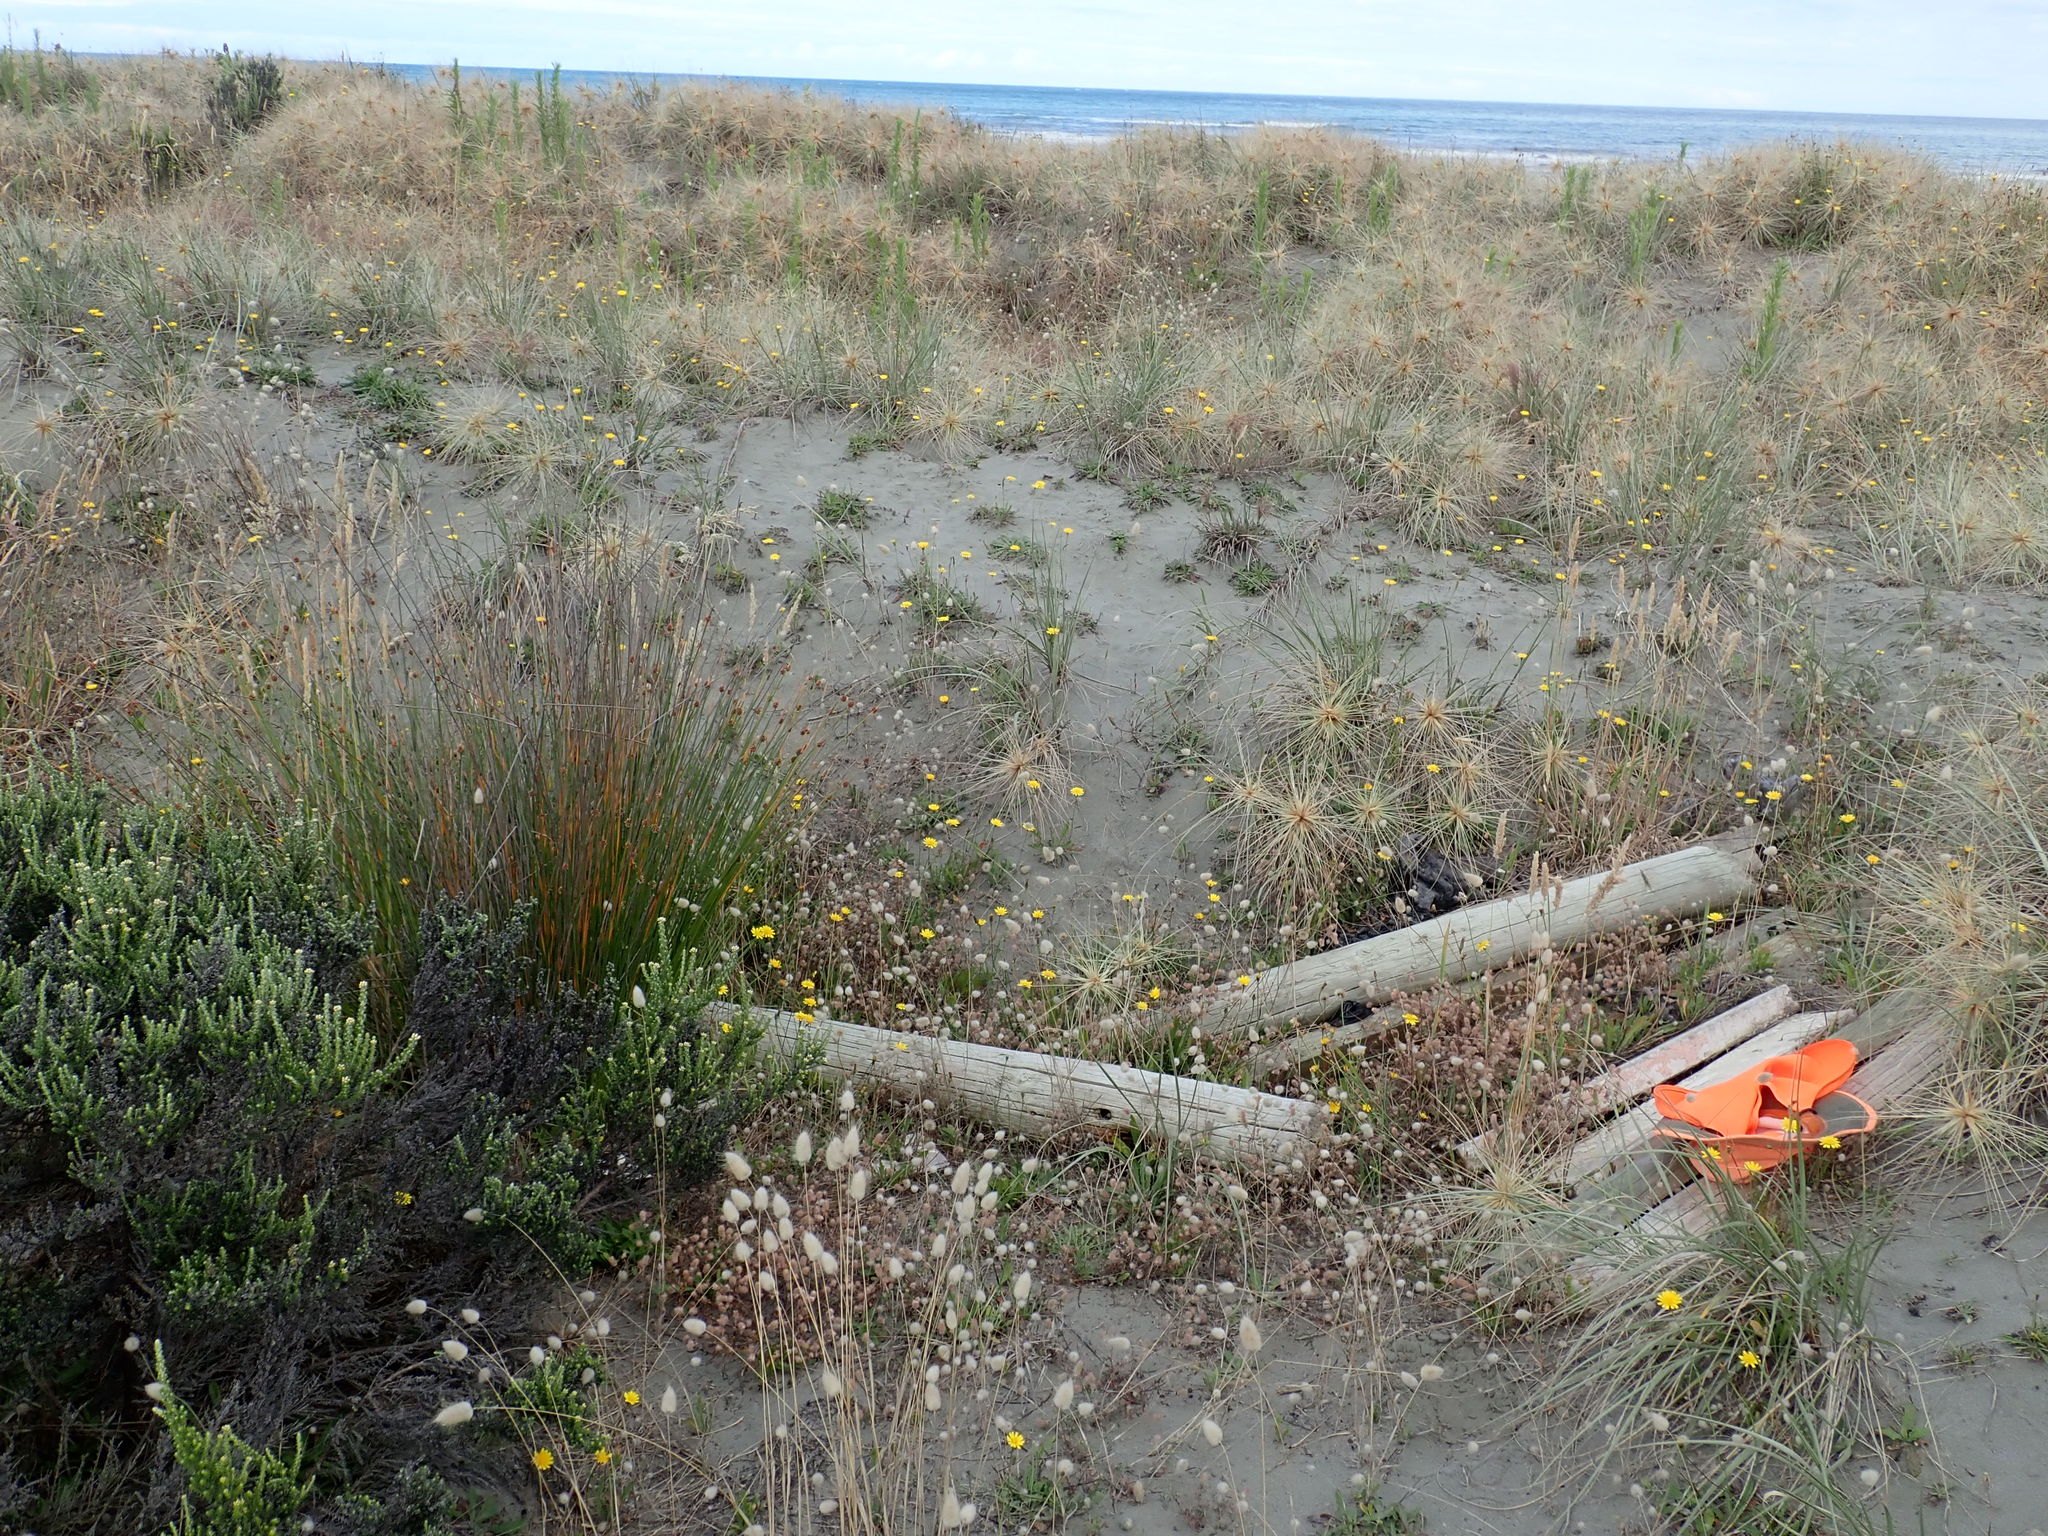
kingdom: Animalia
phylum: Arthropoda
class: Arachnida
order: Araneae
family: Salticidae
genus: Maratus
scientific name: Maratus griseus
